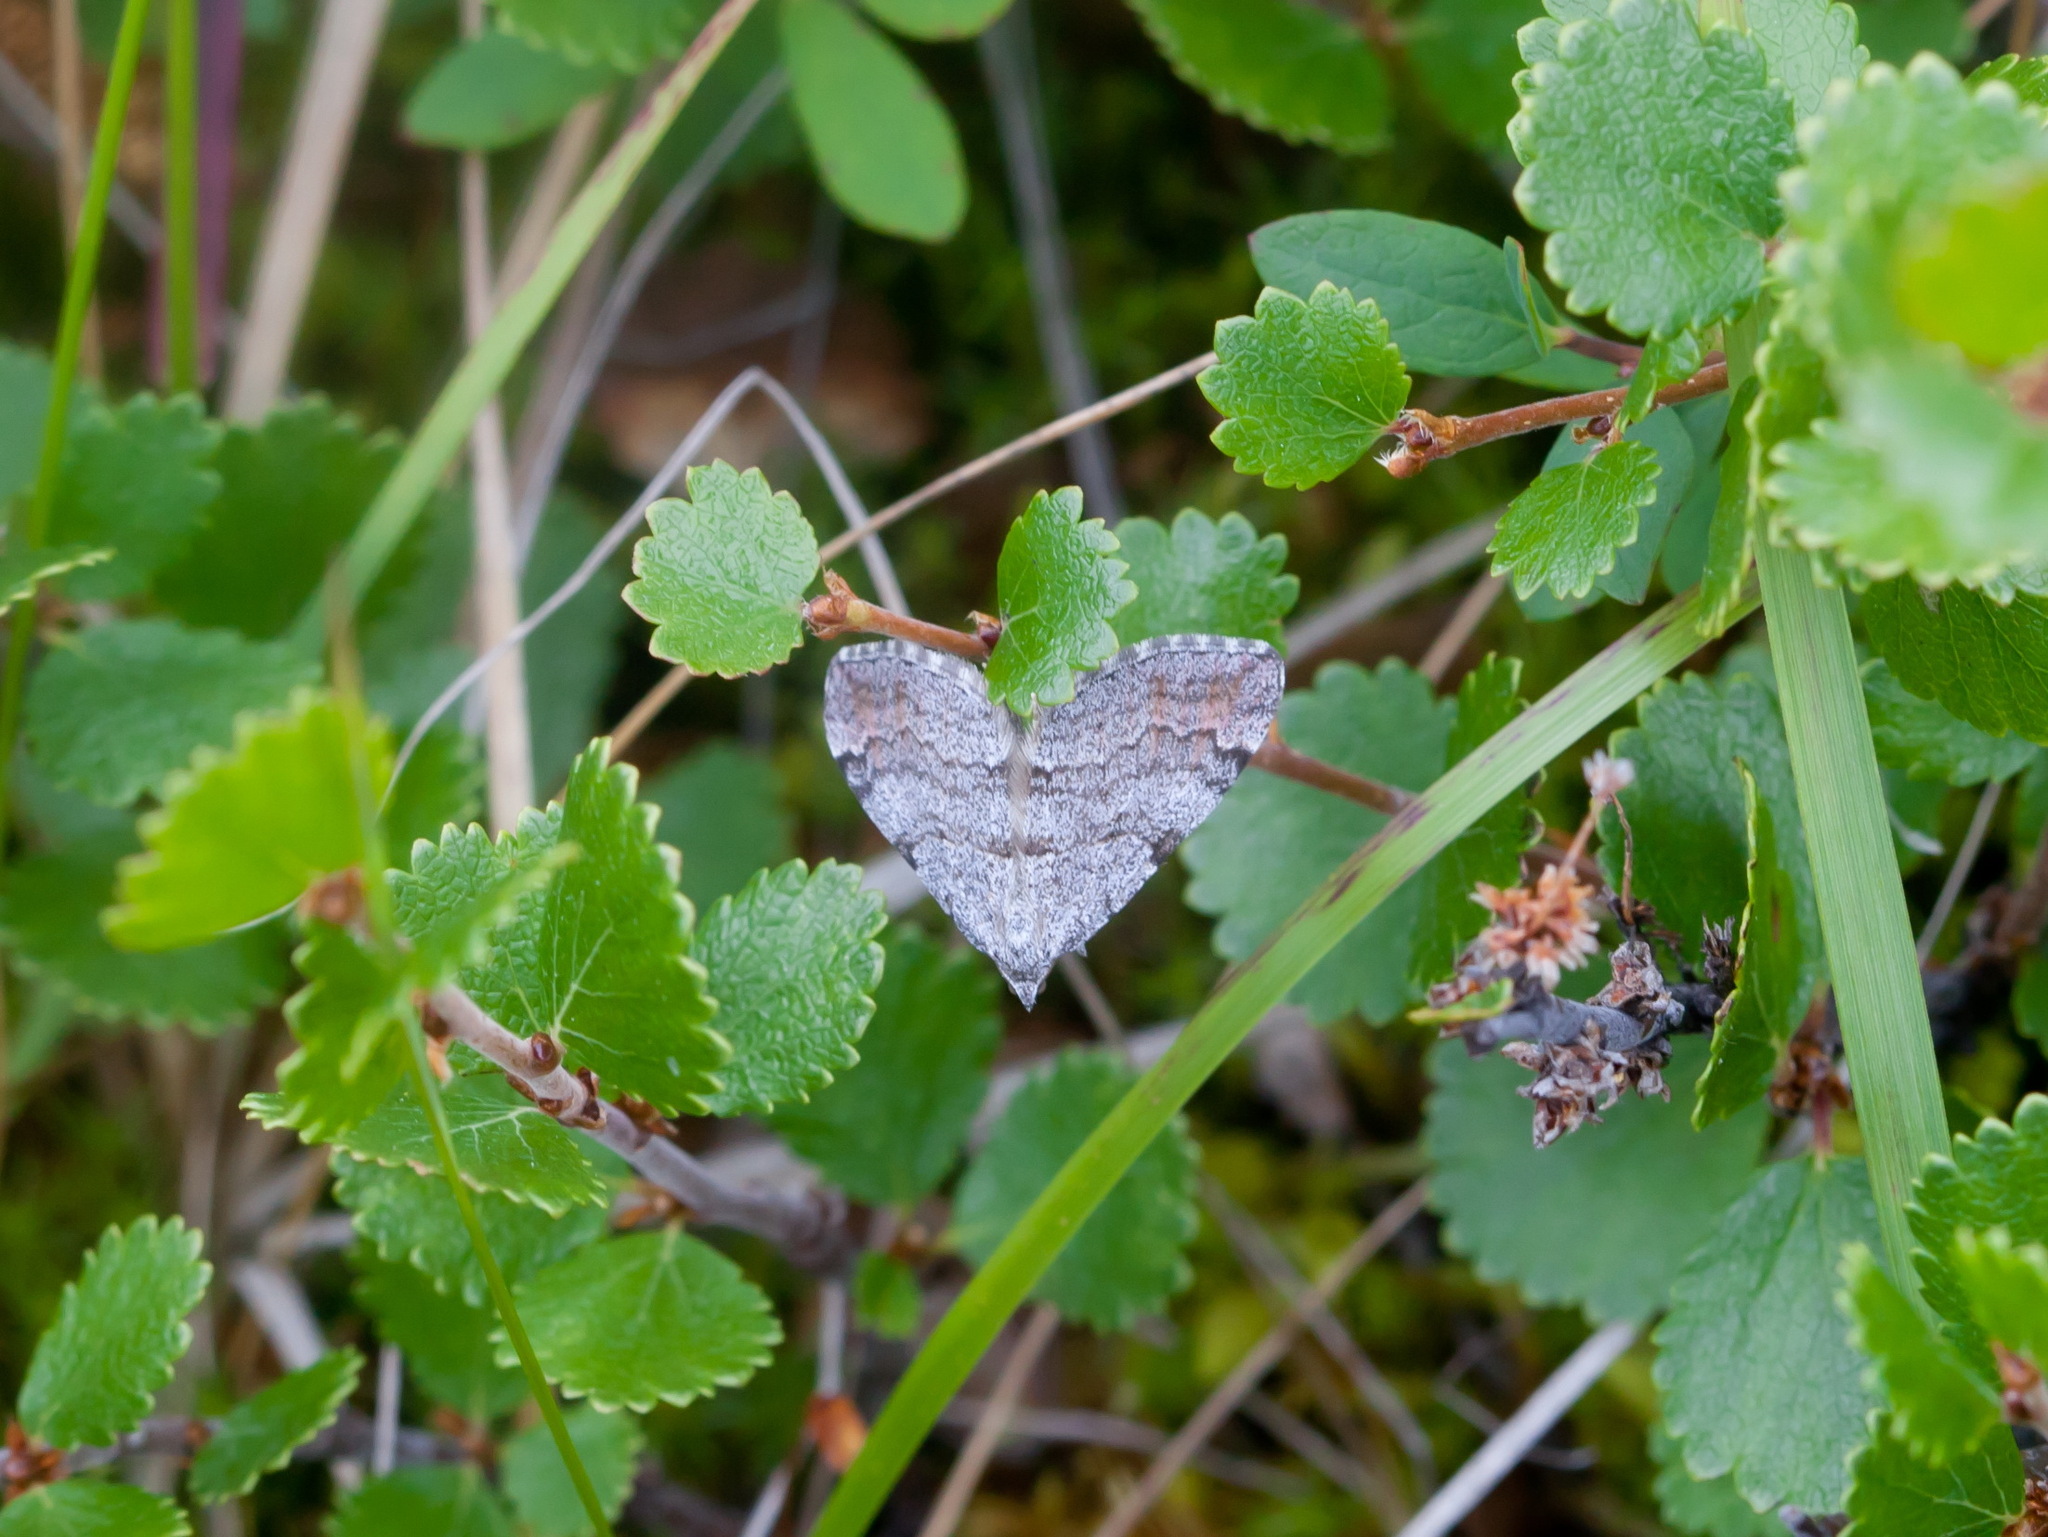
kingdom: Animalia
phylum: Arthropoda
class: Insecta
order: Lepidoptera
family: Geometridae
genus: Carsia
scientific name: Carsia sororiata
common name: Manchester treble-bar
